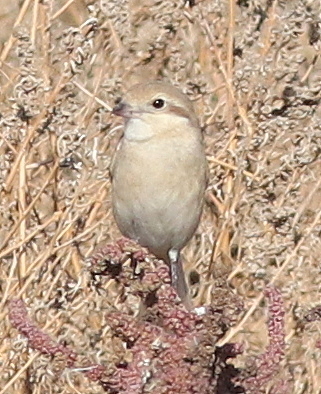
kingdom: Animalia
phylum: Chordata
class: Aves
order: Passeriformes
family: Laniidae
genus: Lanius
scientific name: Lanius isabellinus
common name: Isabelline shrike
